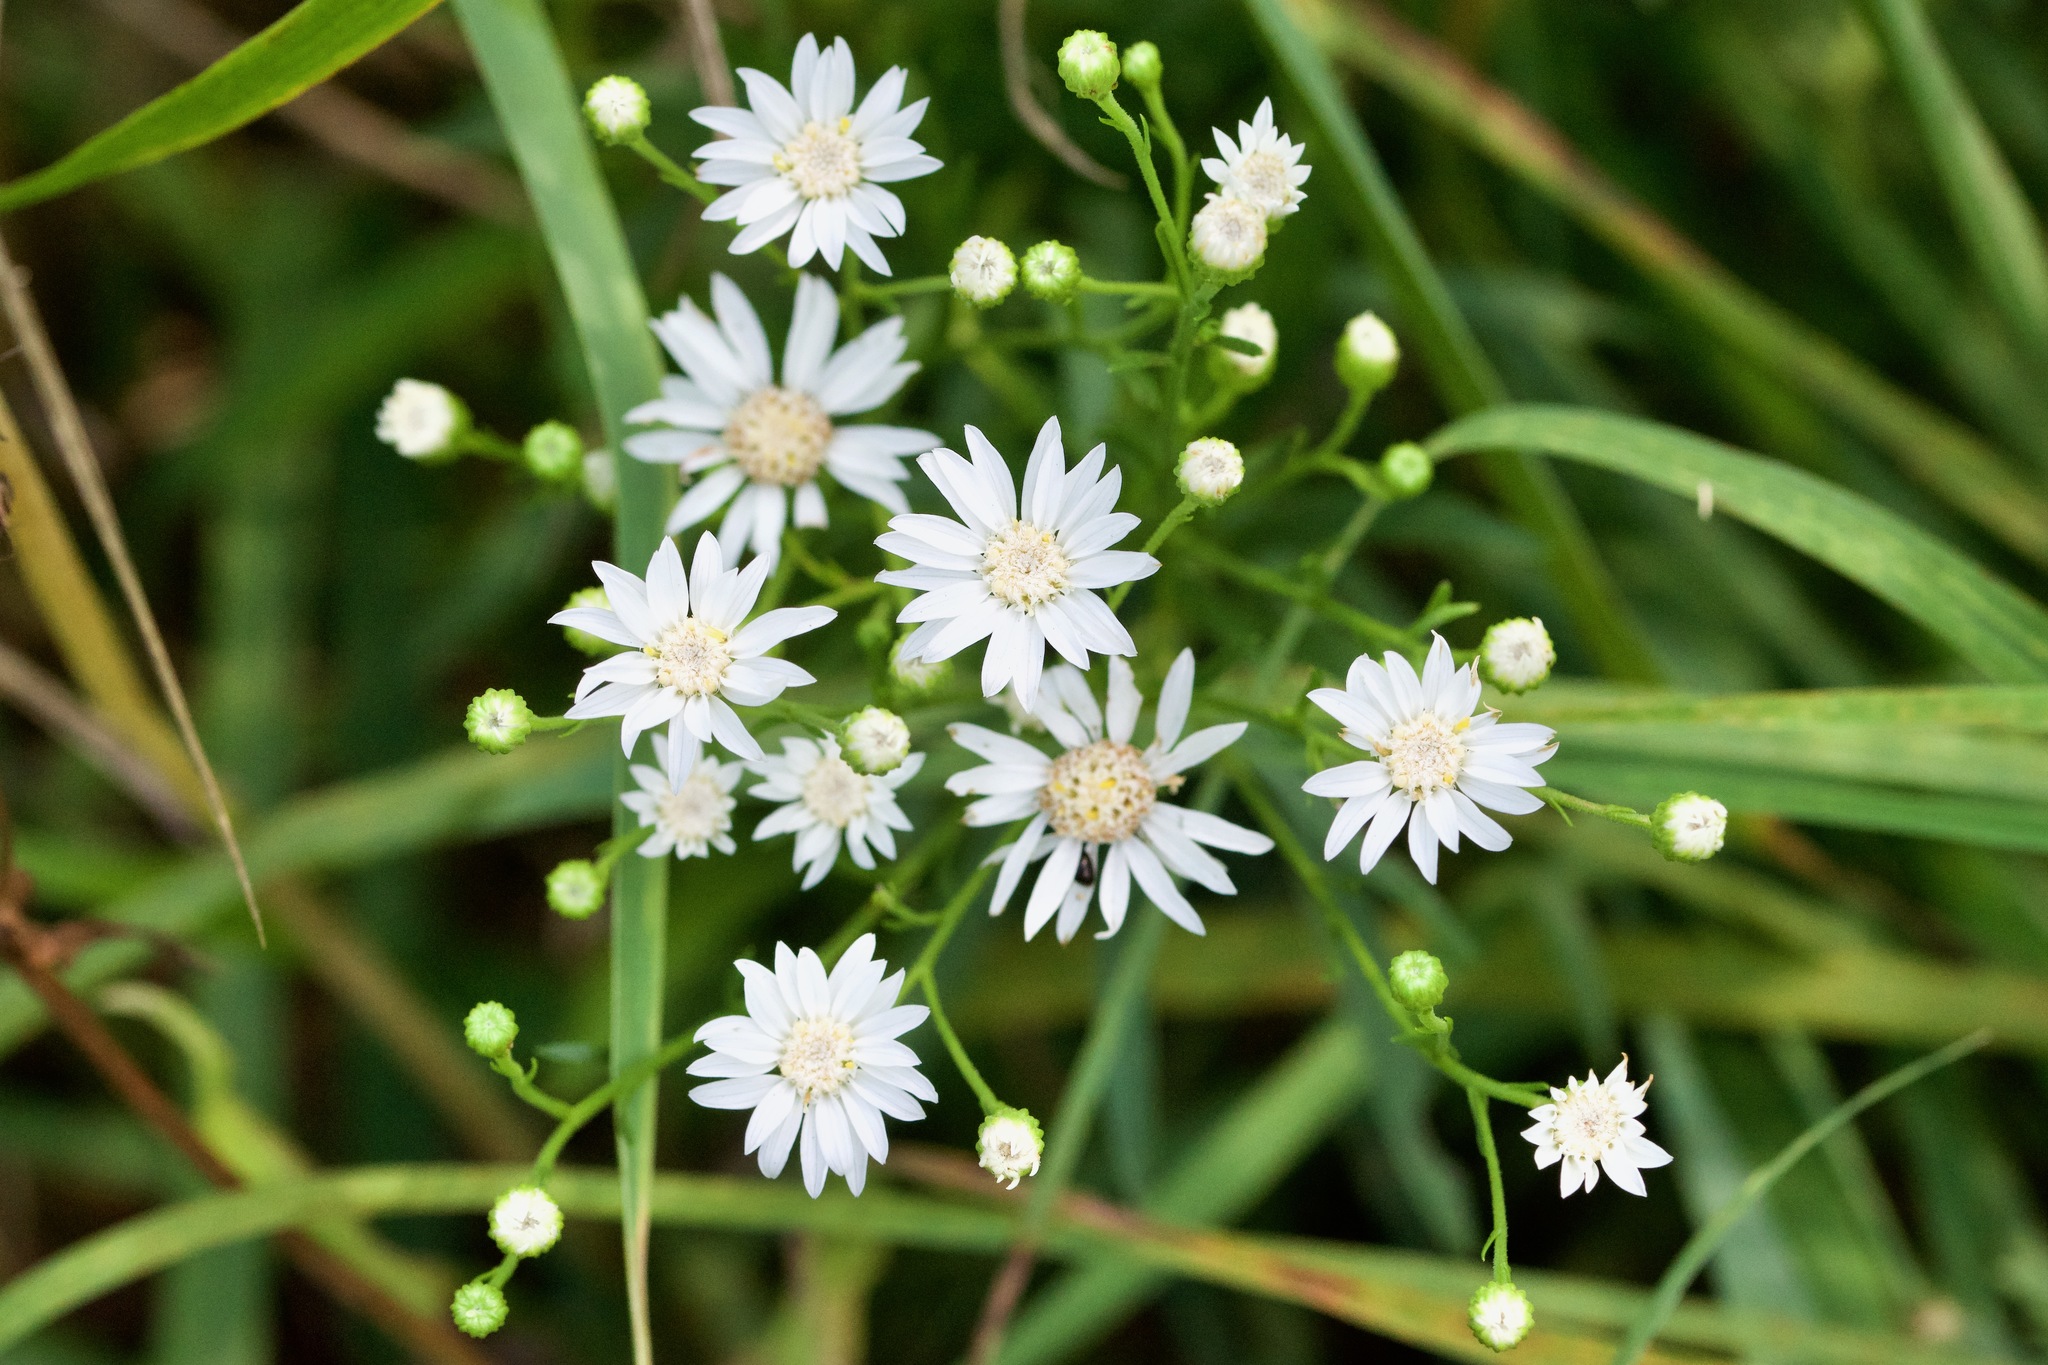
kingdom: Plantae
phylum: Tracheophyta
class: Magnoliopsida
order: Asterales
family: Asteraceae
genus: Solidago
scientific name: Solidago ptarmicoides
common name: White flat-top goldenrod
